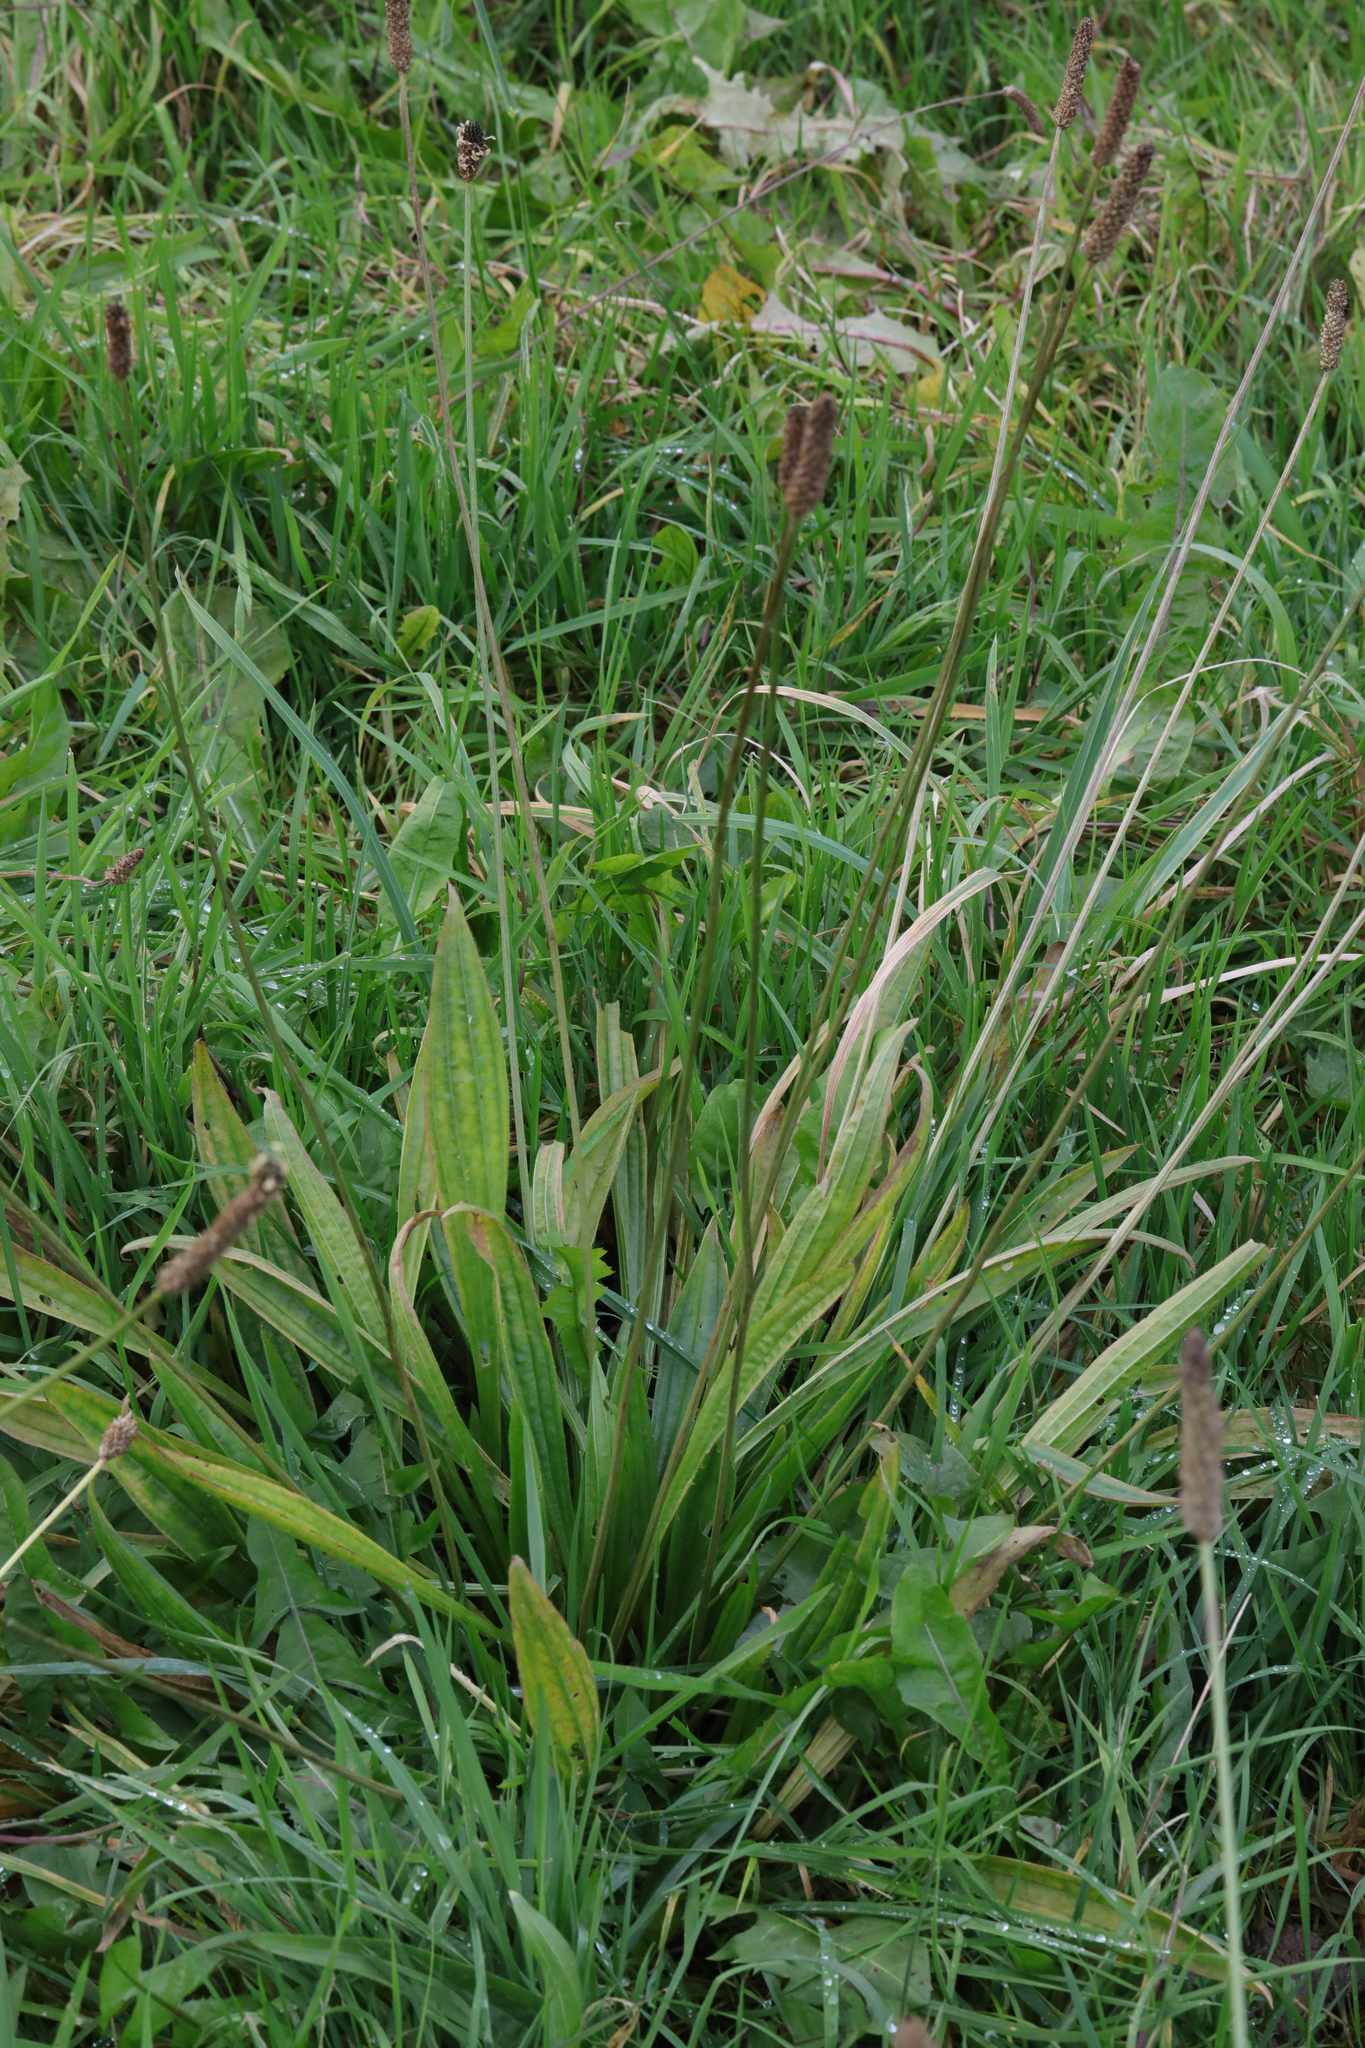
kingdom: Plantae
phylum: Tracheophyta
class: Magnoliopsida
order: Lamiales
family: Plantaginaceae
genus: Plantago
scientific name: Plantago lanceolata
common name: Ribwort plantain
